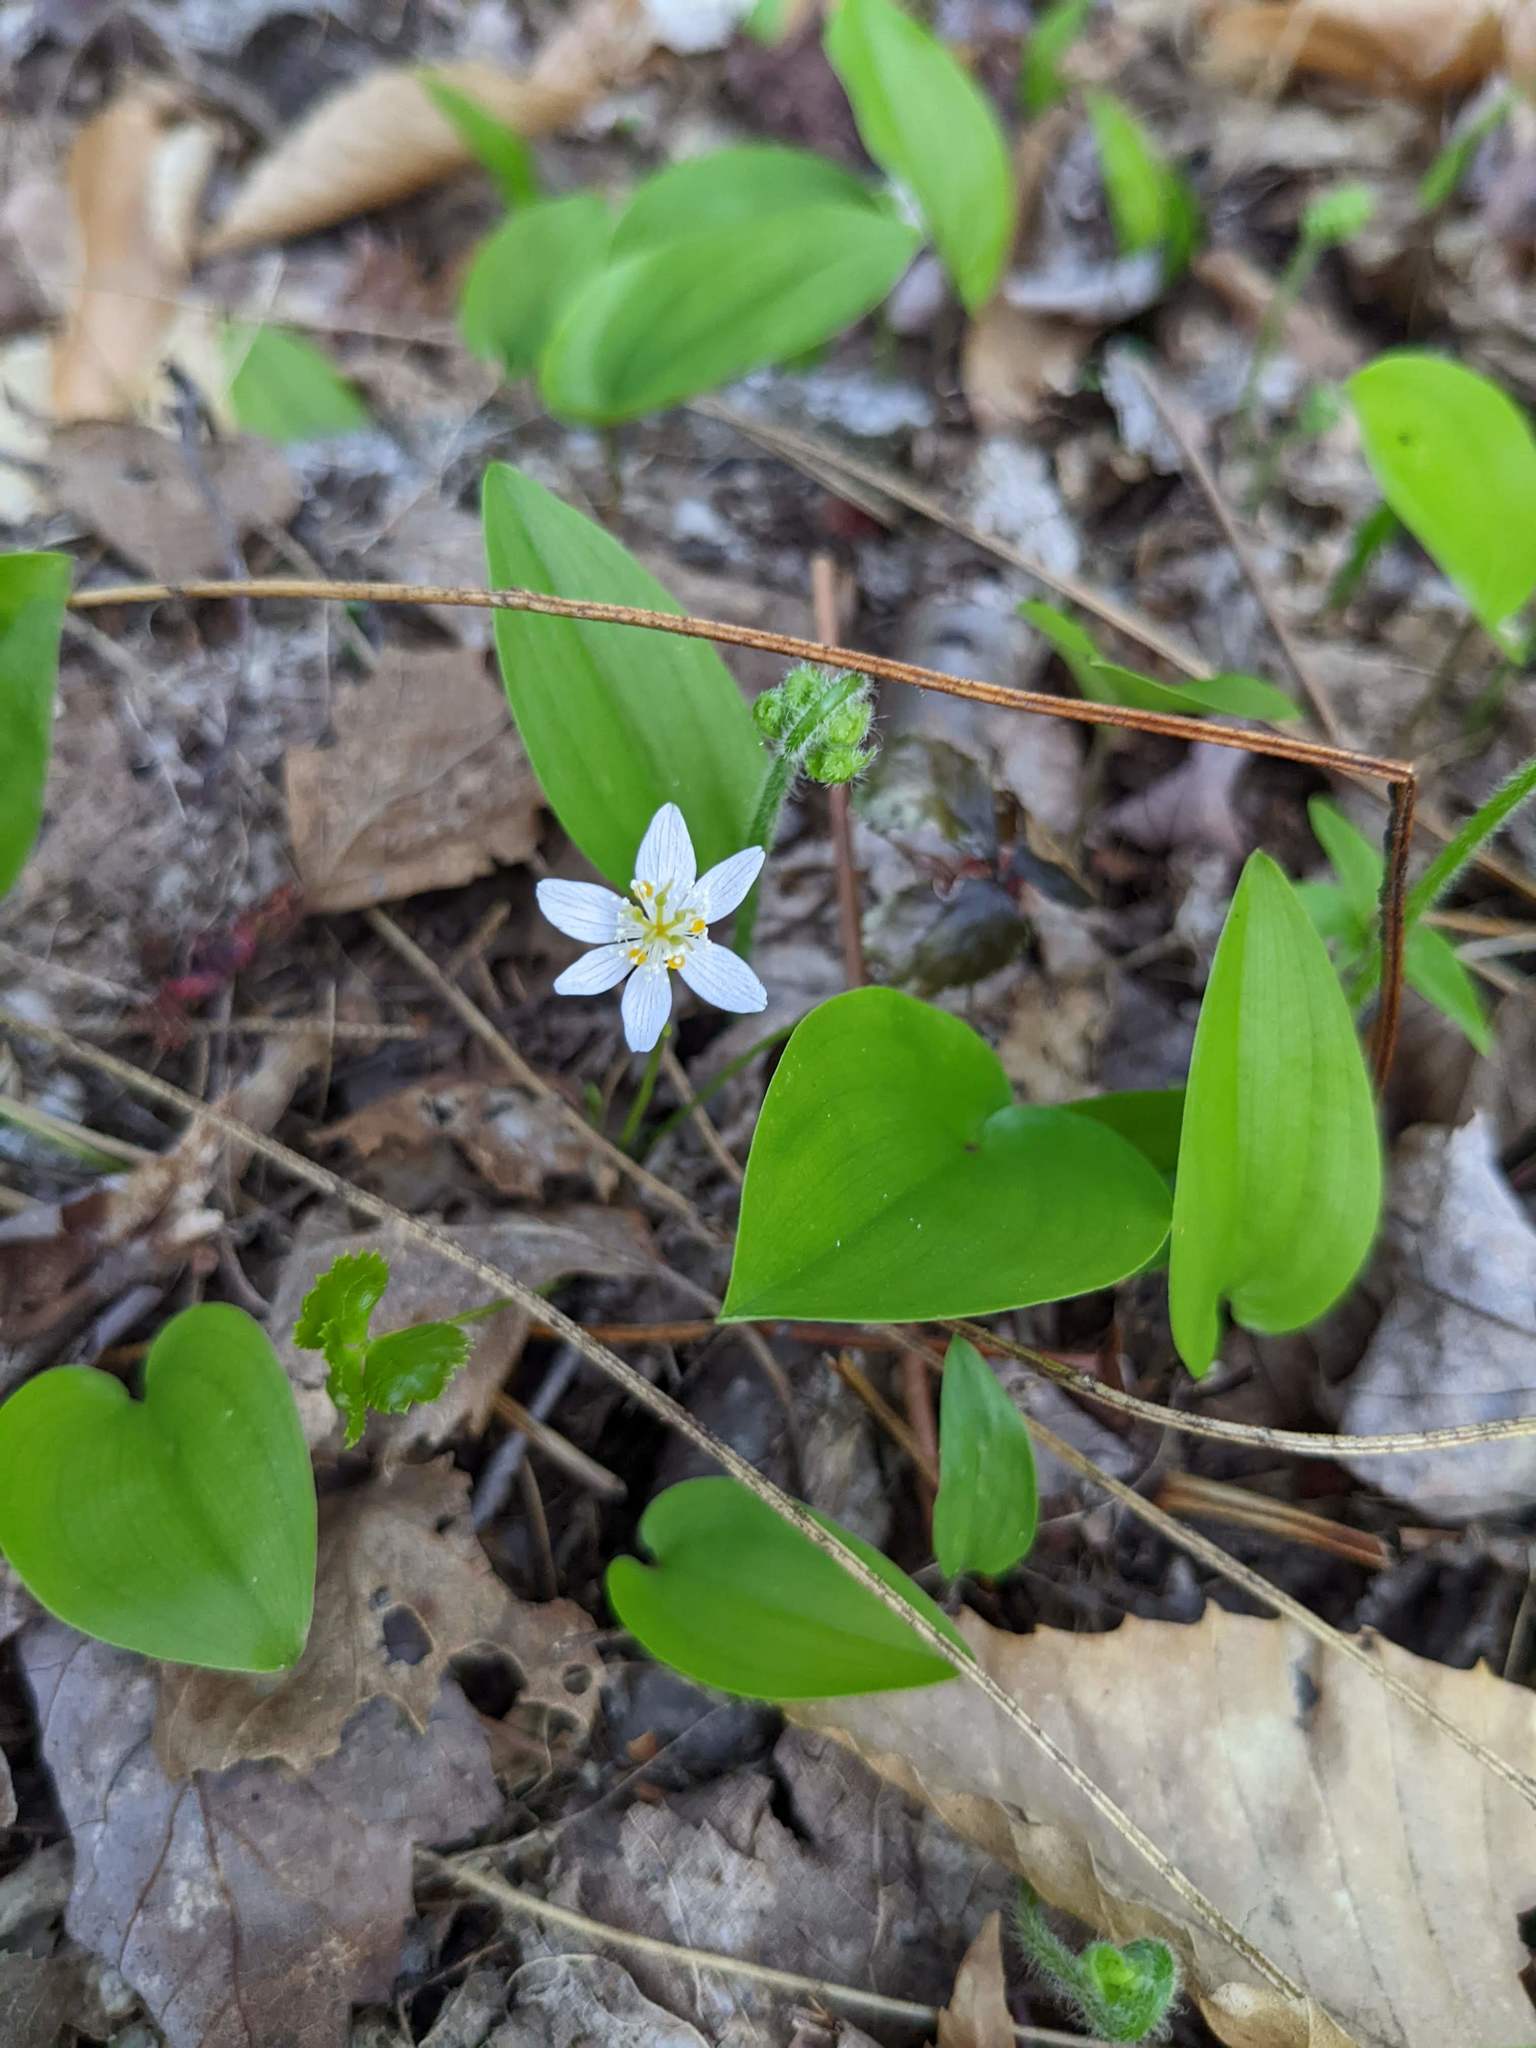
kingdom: Plantae
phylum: Tracheophyta
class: Liliopsida
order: Asparagales
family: Asparagaceae
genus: Maianthemum
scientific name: Maianthemum canadense
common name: False lily-of-the-valley
